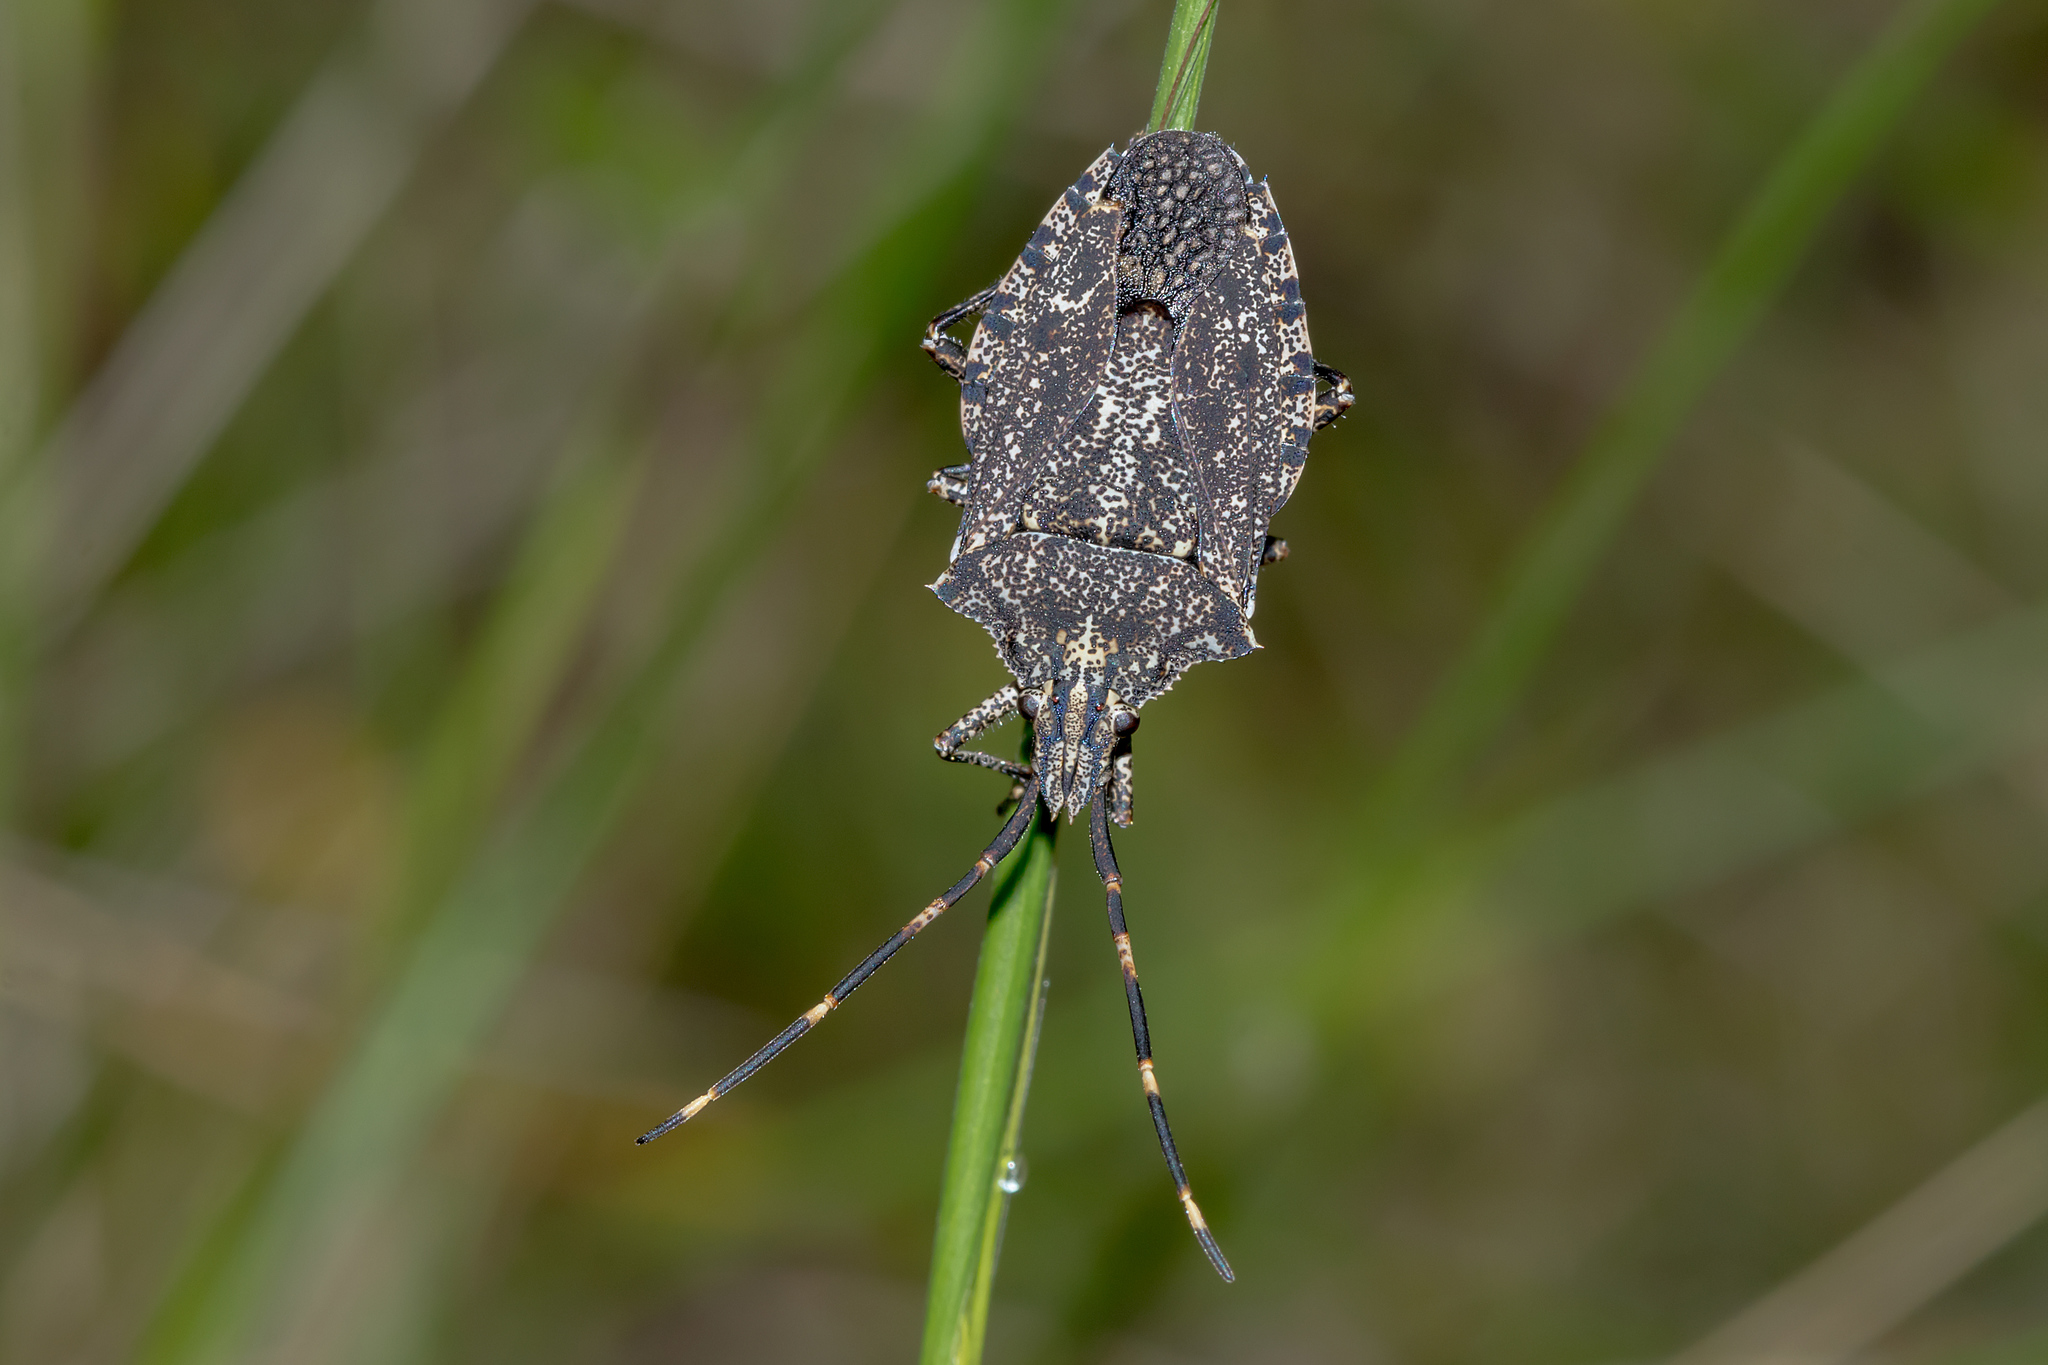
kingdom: Animalia
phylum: Arthropoda
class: Insecta
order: Hemiptera
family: Pentatomidae
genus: Alcaeus
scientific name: Alcaeus
